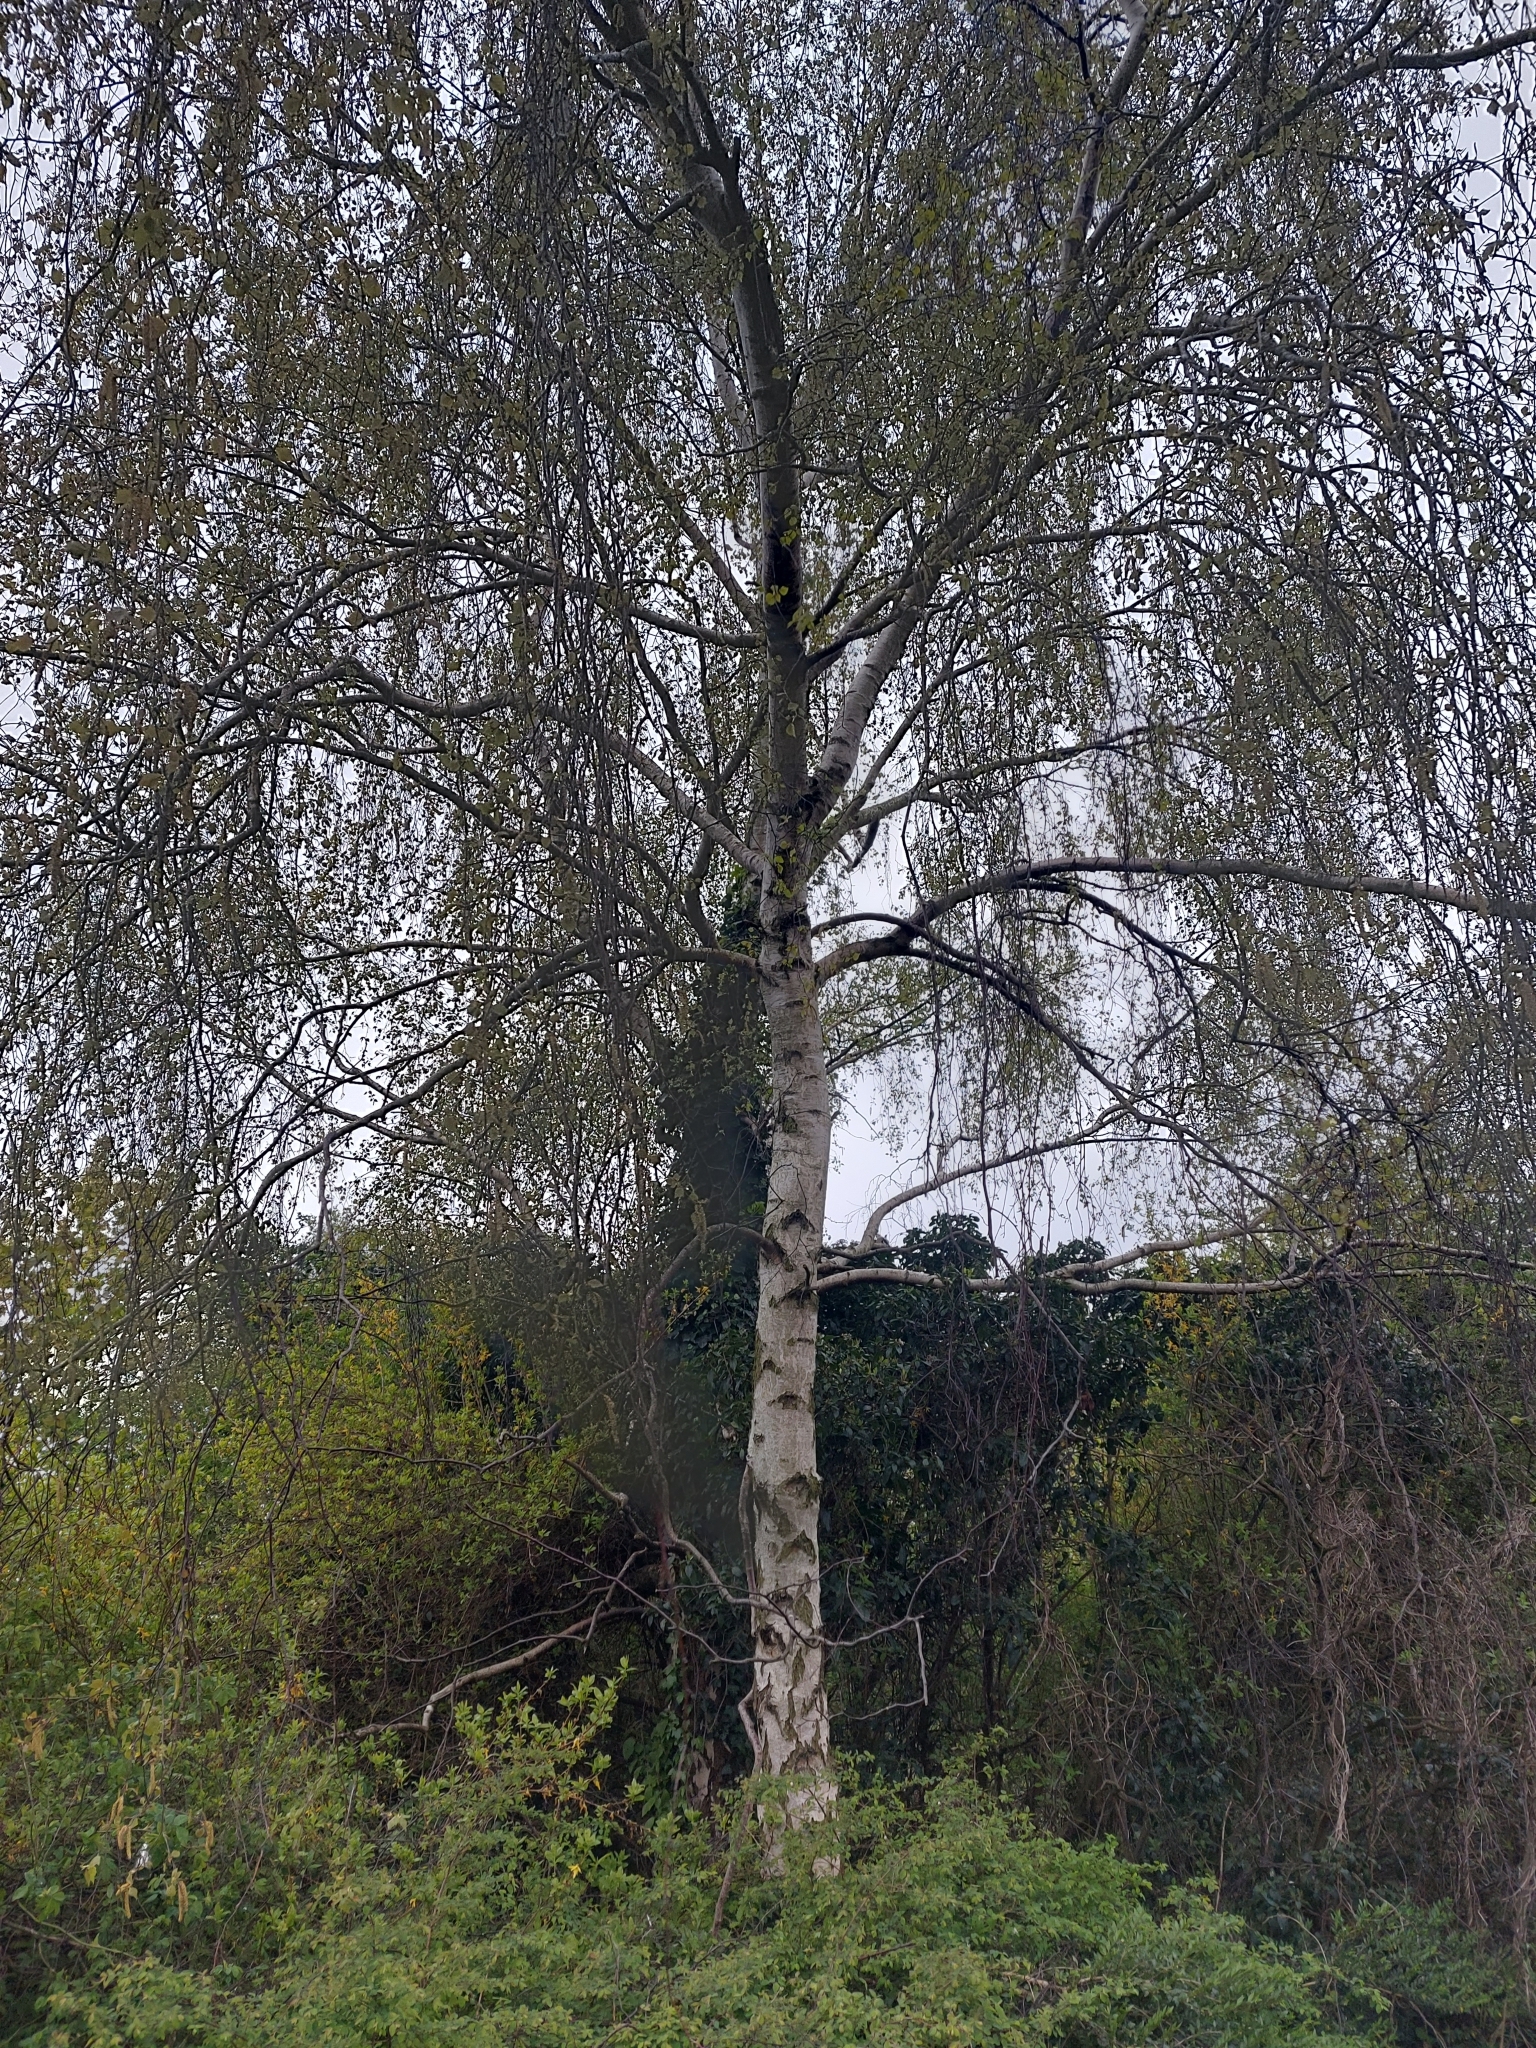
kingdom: Plantae
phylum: Tracheophyta
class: Magnoliopsida
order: Fagales
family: Betulaceae
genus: Betula
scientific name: Betula pendula
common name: Silver birch
